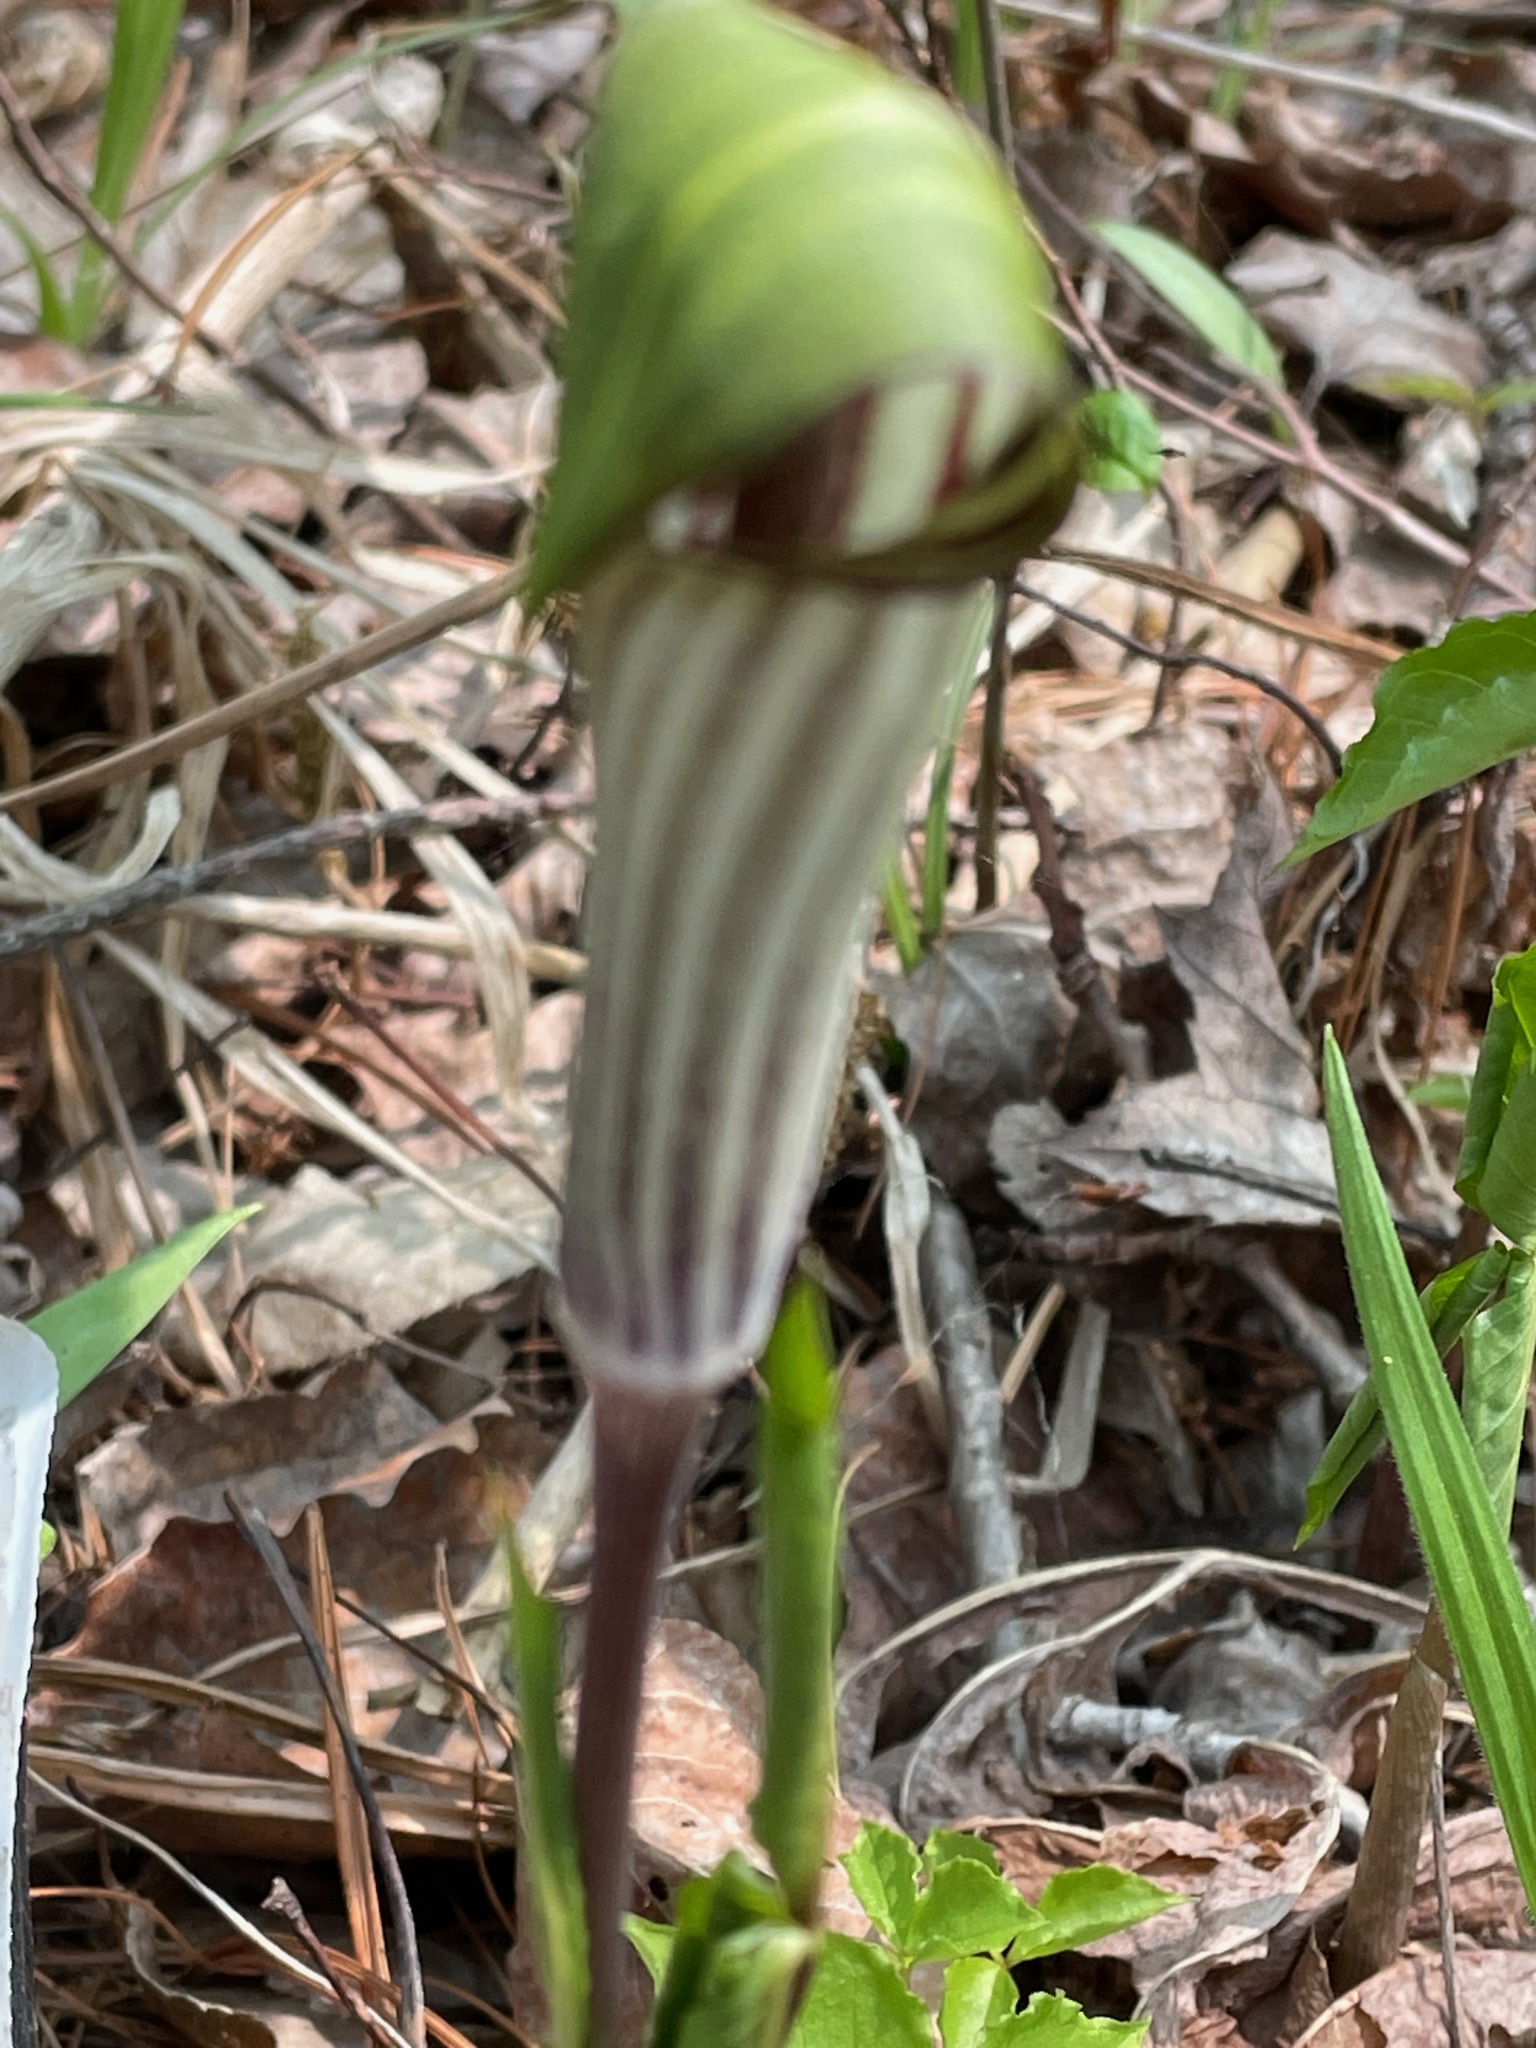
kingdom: Plantae
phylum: Tracheophyta
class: Liliopsida
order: Alismatales
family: Araceae
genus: Arisaema
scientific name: Arisaema triphyllum
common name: Jack-in-the-pulpit
